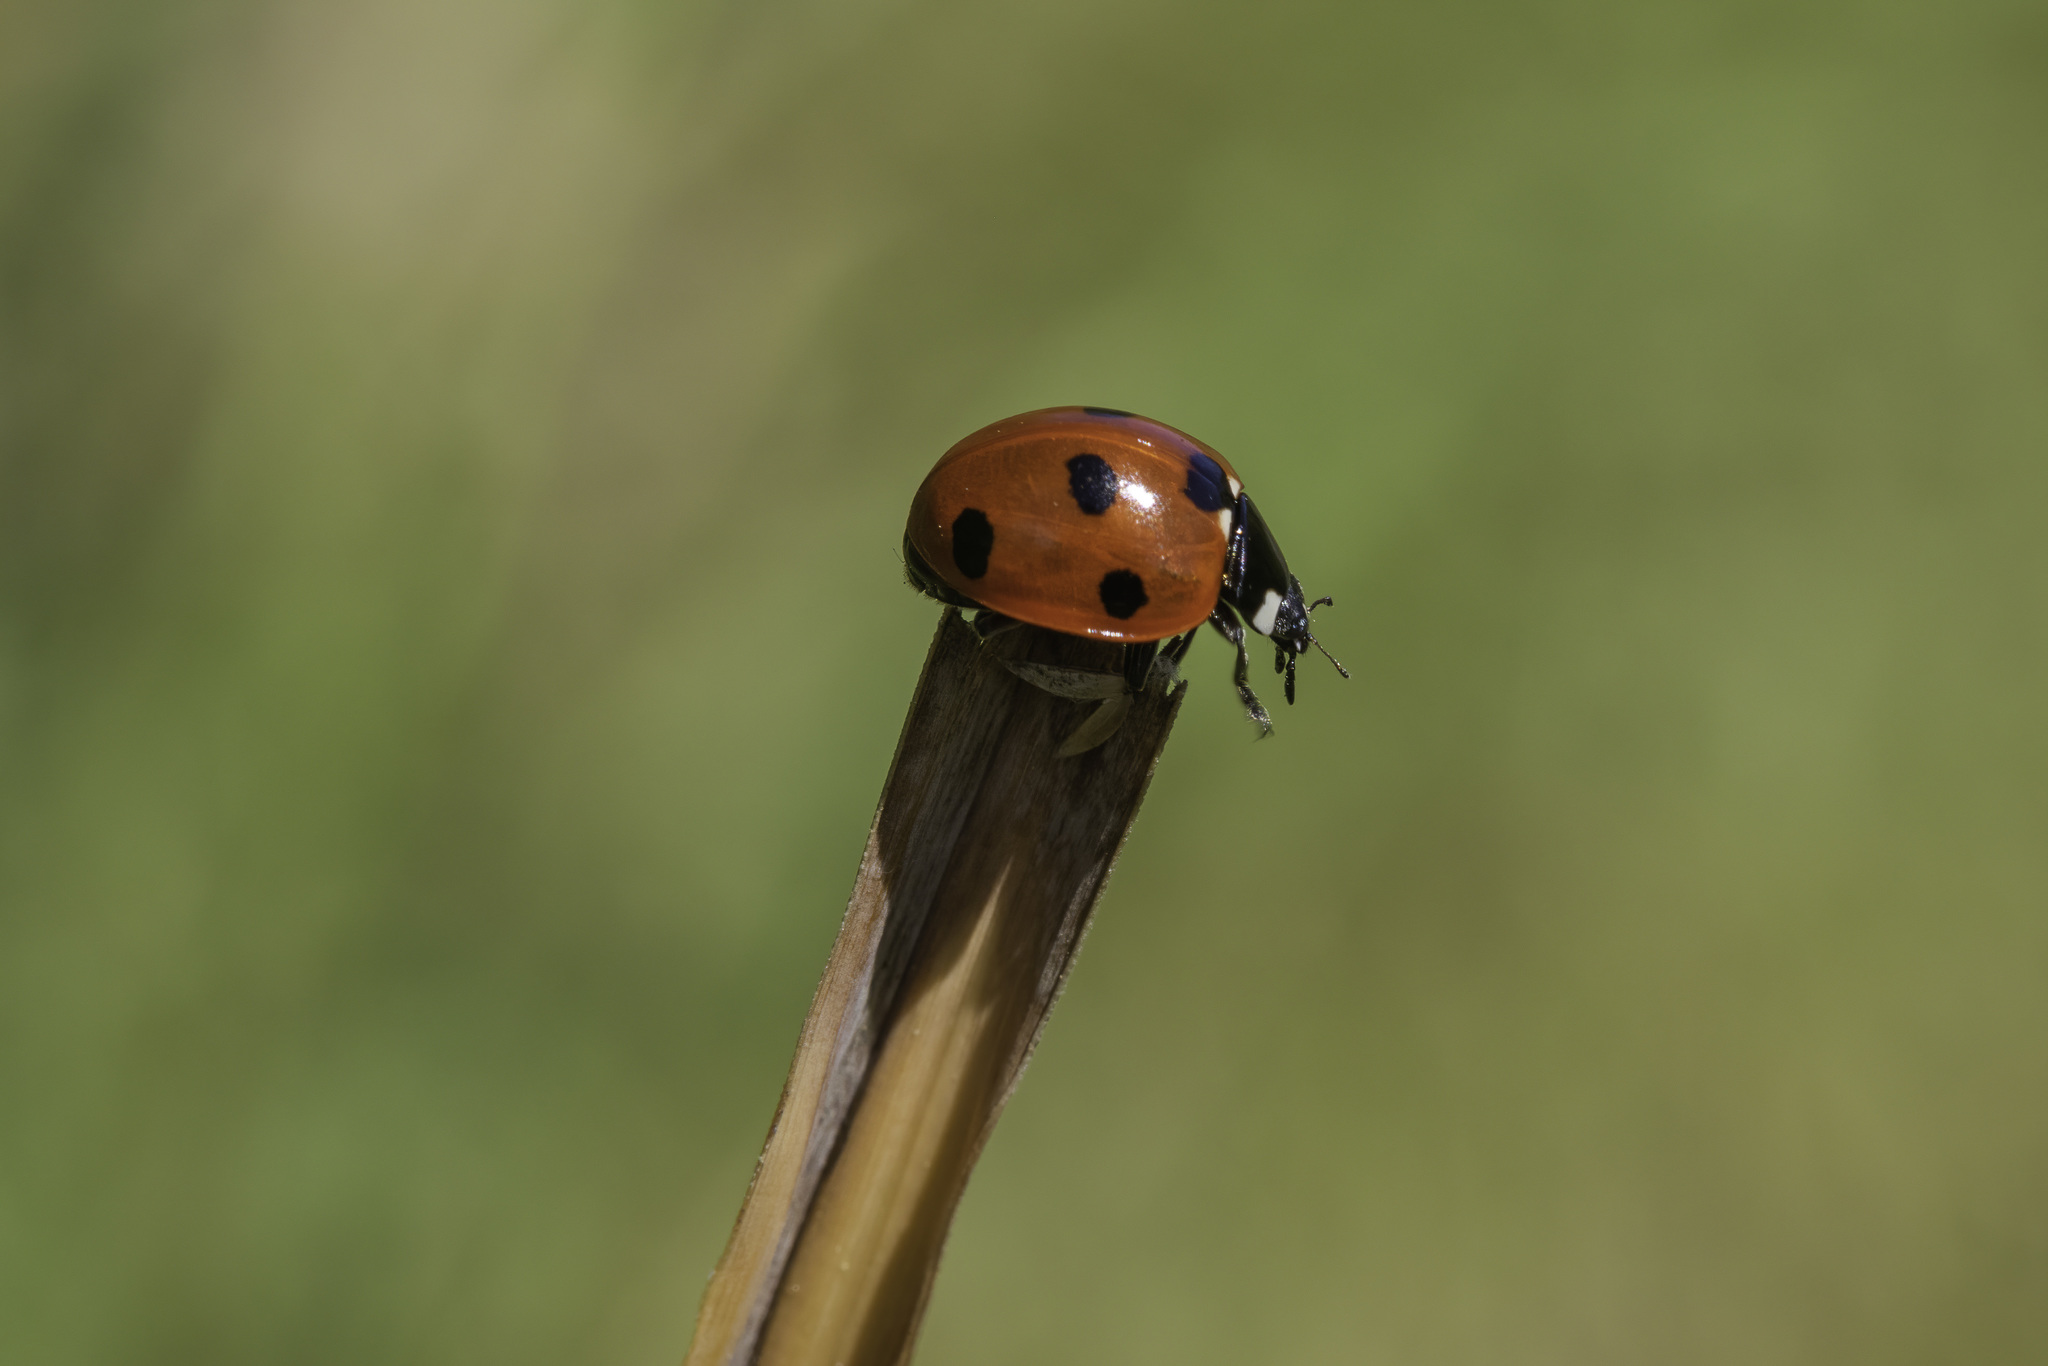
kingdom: Animalia
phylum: Arthropoda
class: Insecta
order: Coleoptera
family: Coccinellidae
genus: Coccinella
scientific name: Coccinella septempunctata
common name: Sevenspotted lady beetle
